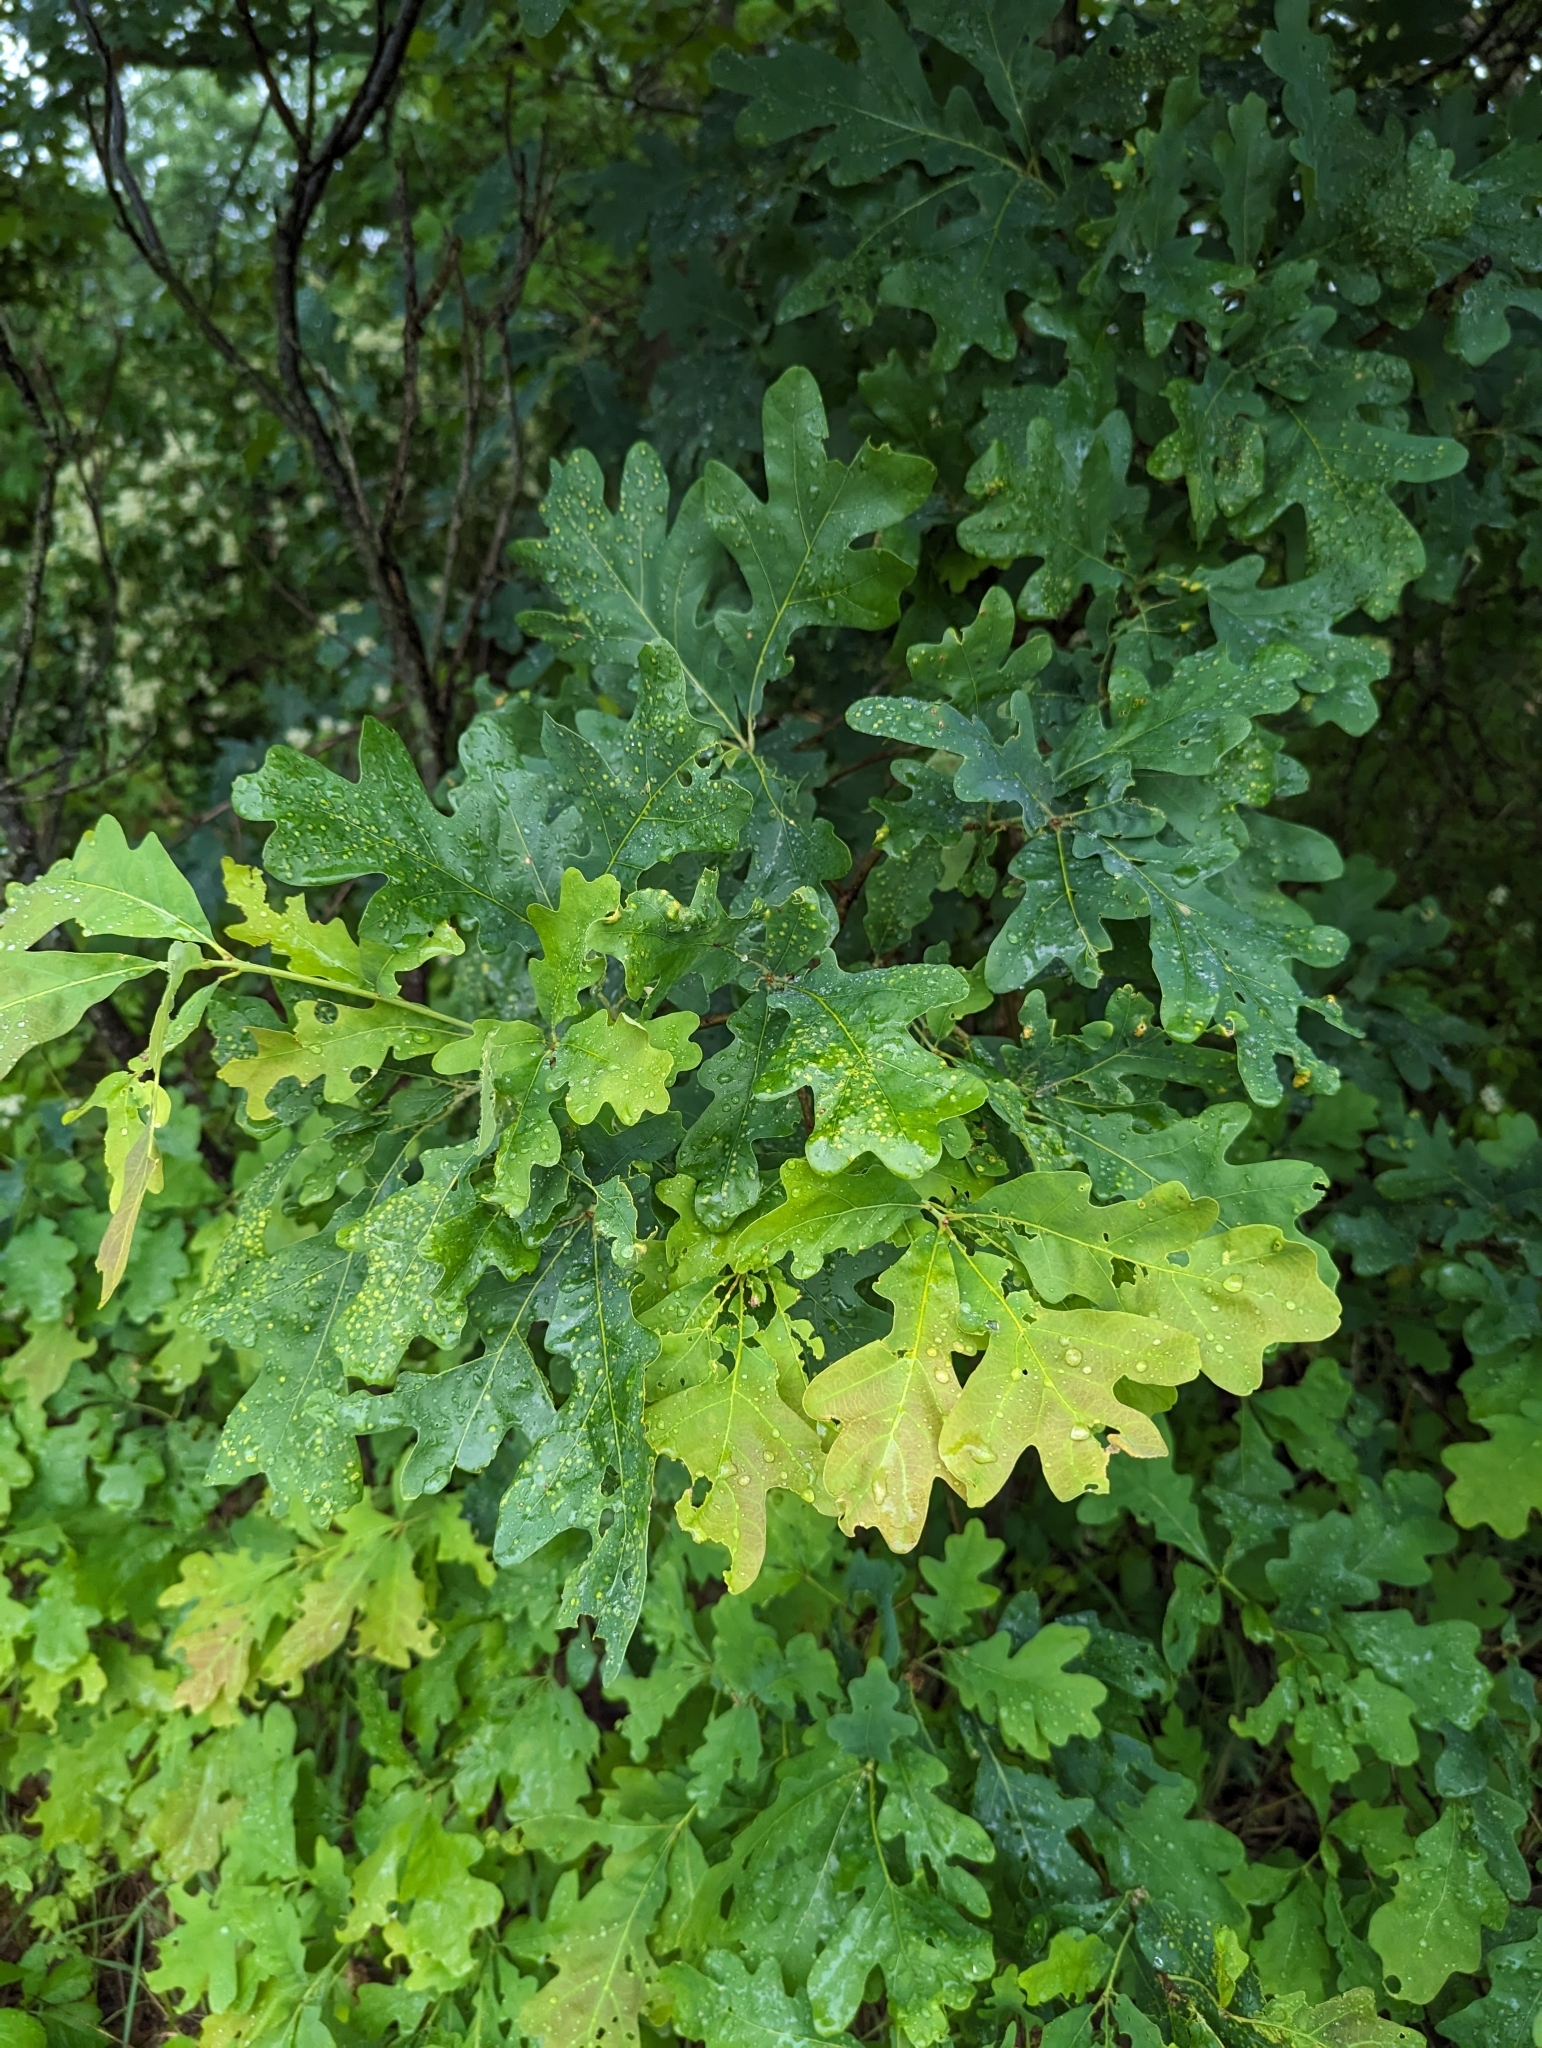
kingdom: Animalia
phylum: Arthropoda
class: Insecta
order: Hymenoptera
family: Cynipidae
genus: Neuroterus
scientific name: Neuroterus
